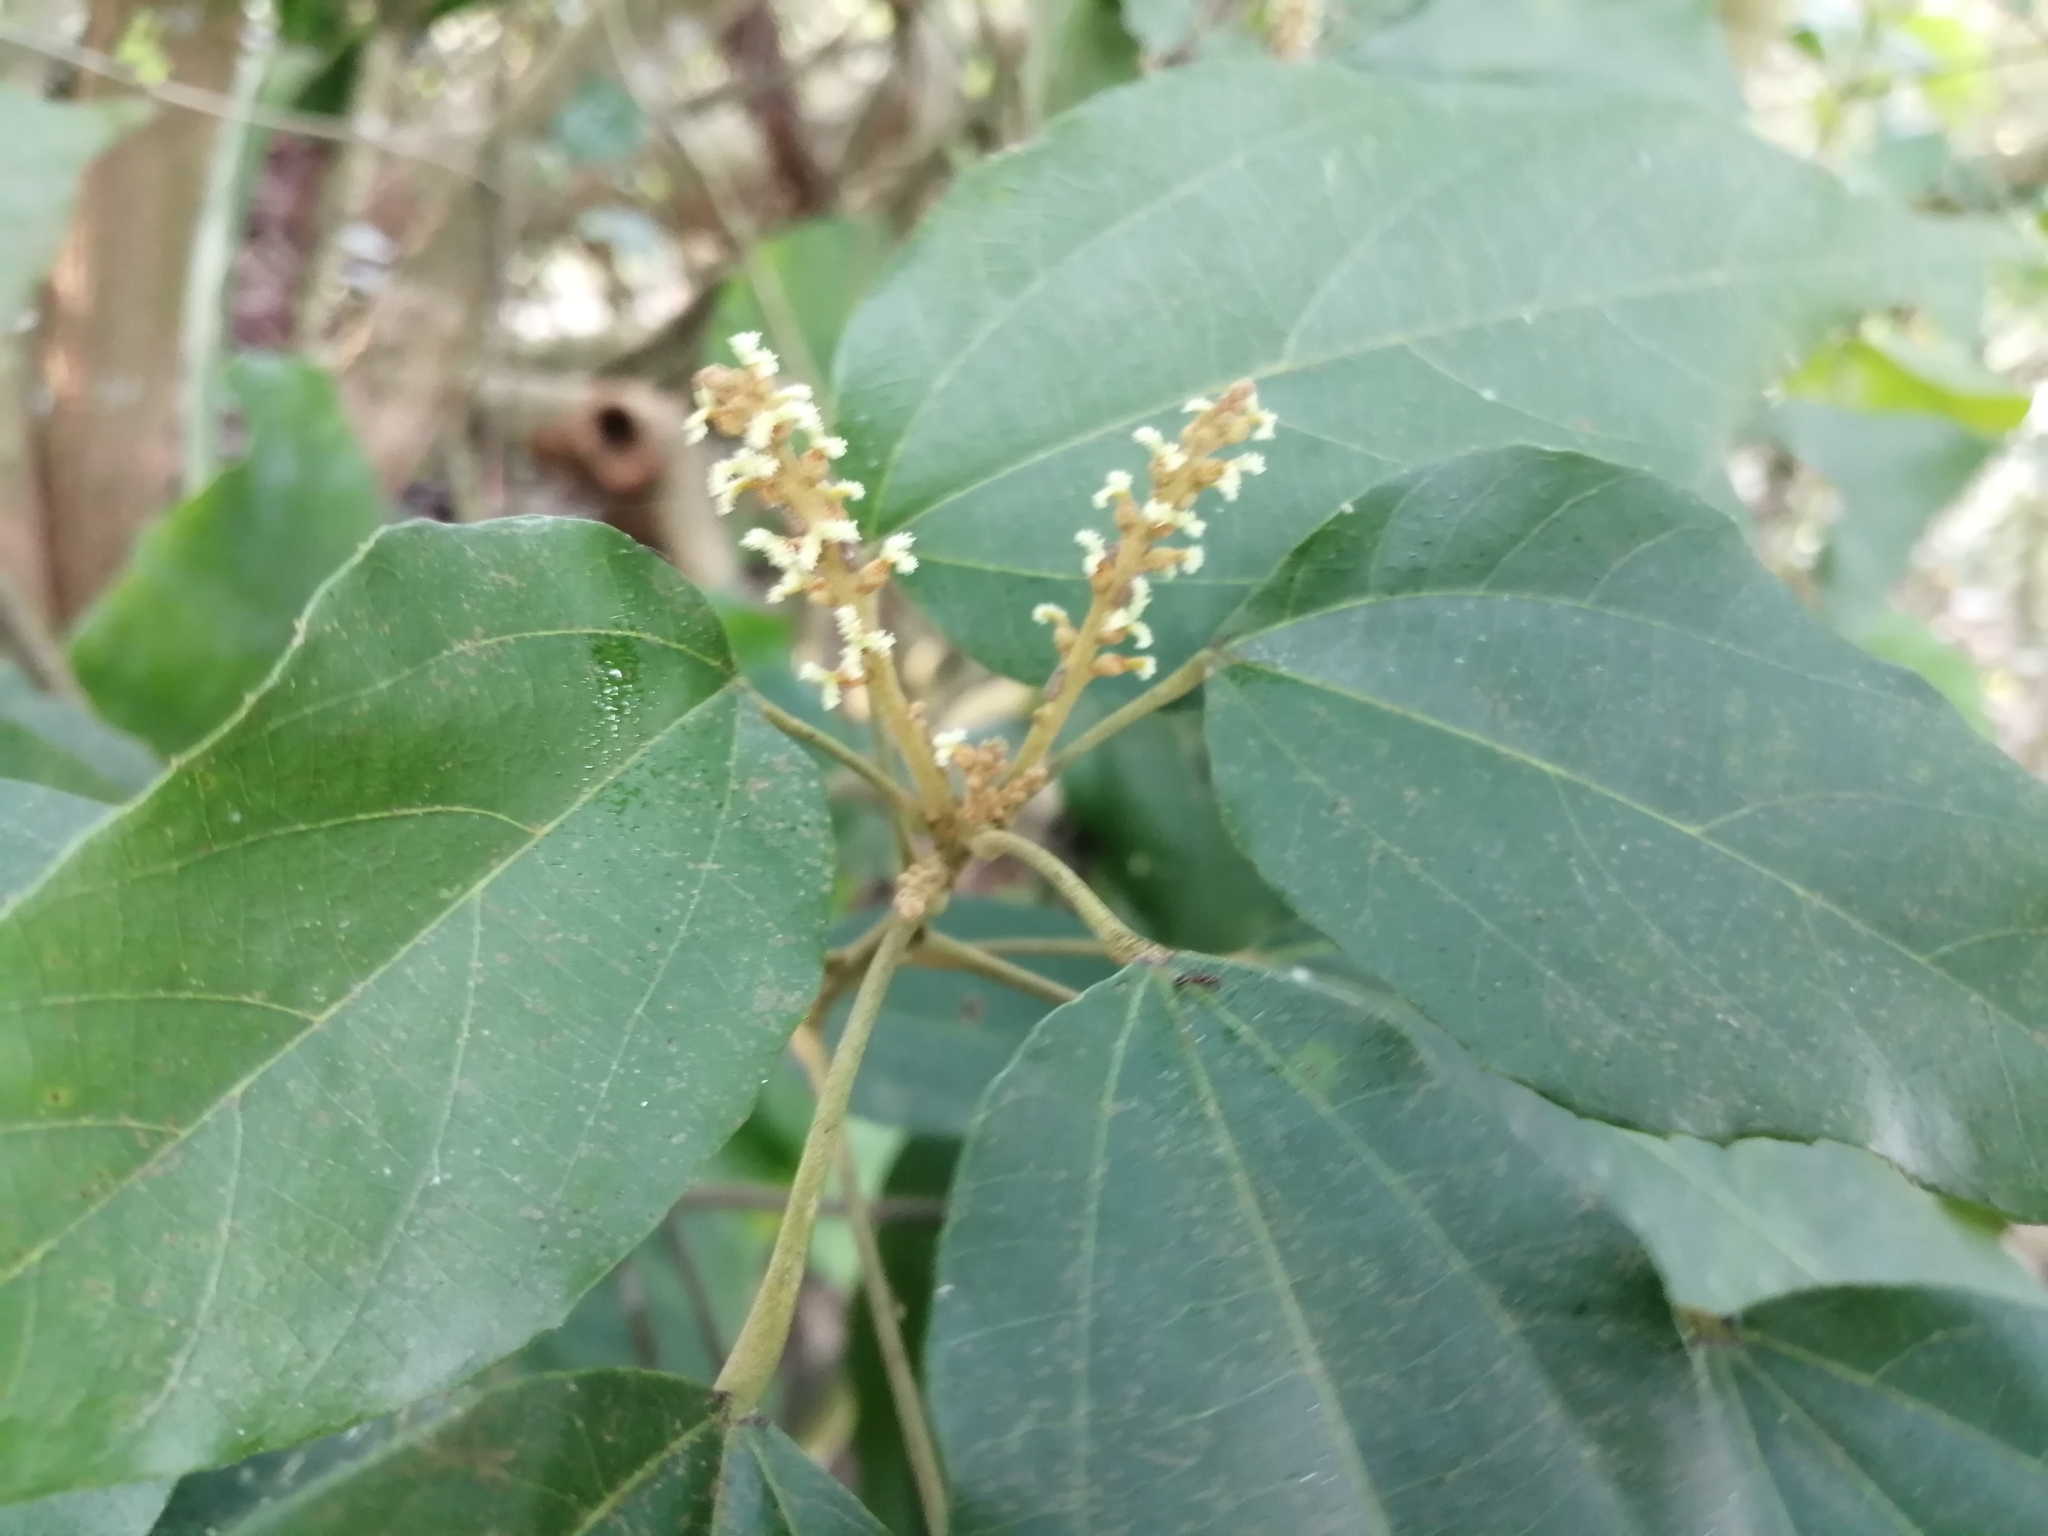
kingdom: Plantae
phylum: Tracheophyta
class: Magnoliopsida
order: Malpighiales
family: Euphorbiaceae
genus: Mallotus
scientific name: Mallotus philippensis
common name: Kamala tree
